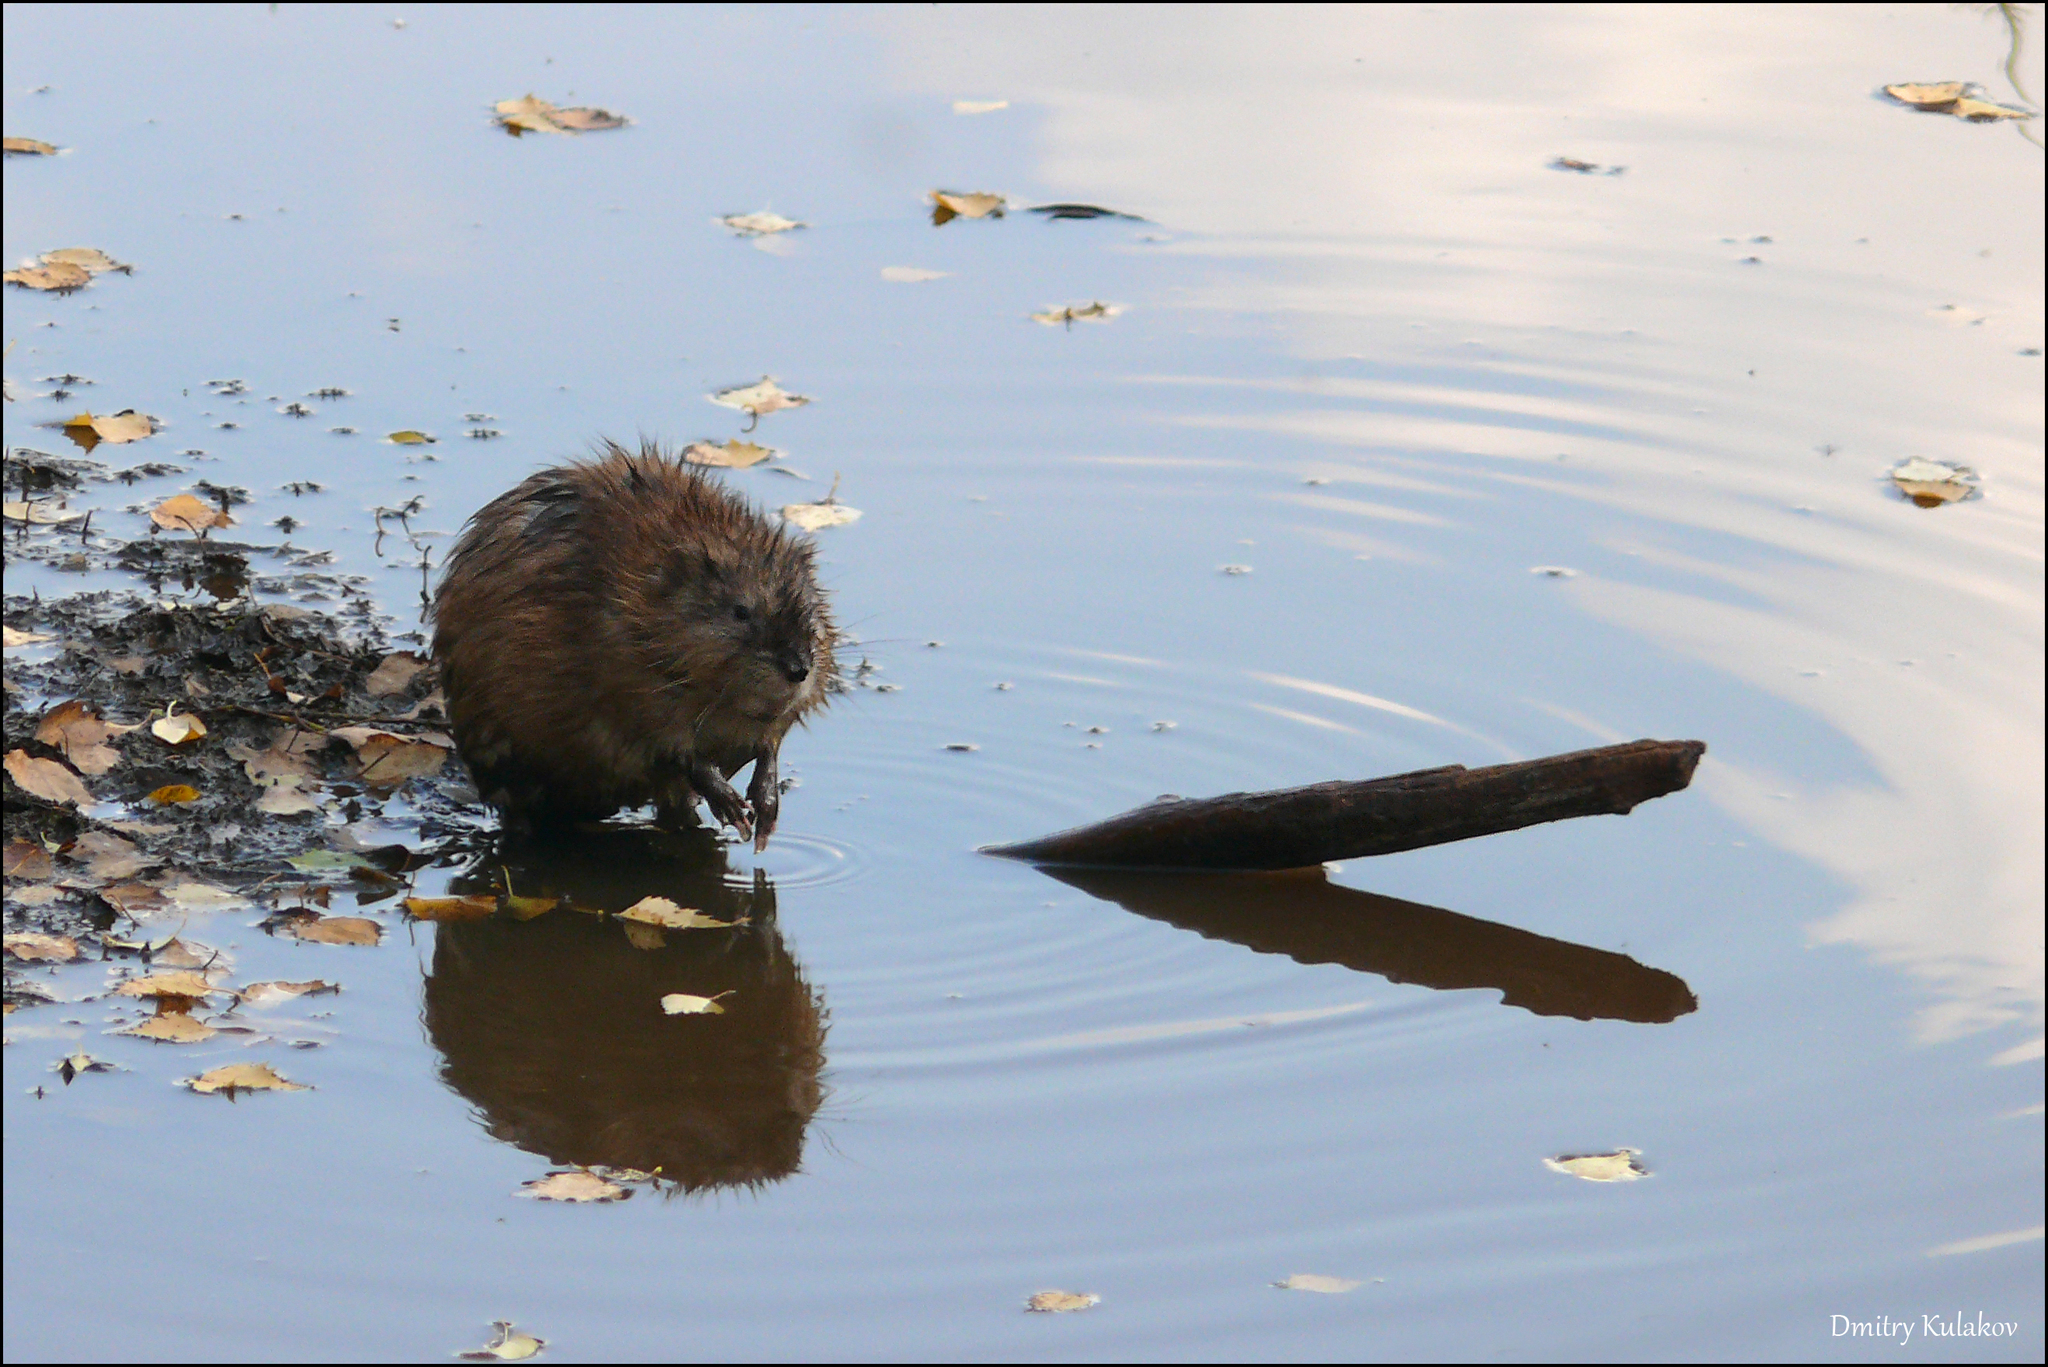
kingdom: Animalia
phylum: Chordata
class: Mammalia
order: Rodentia
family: Cricetidae
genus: Ondatra
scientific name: Ondatra zibethicus
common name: Muskrat
